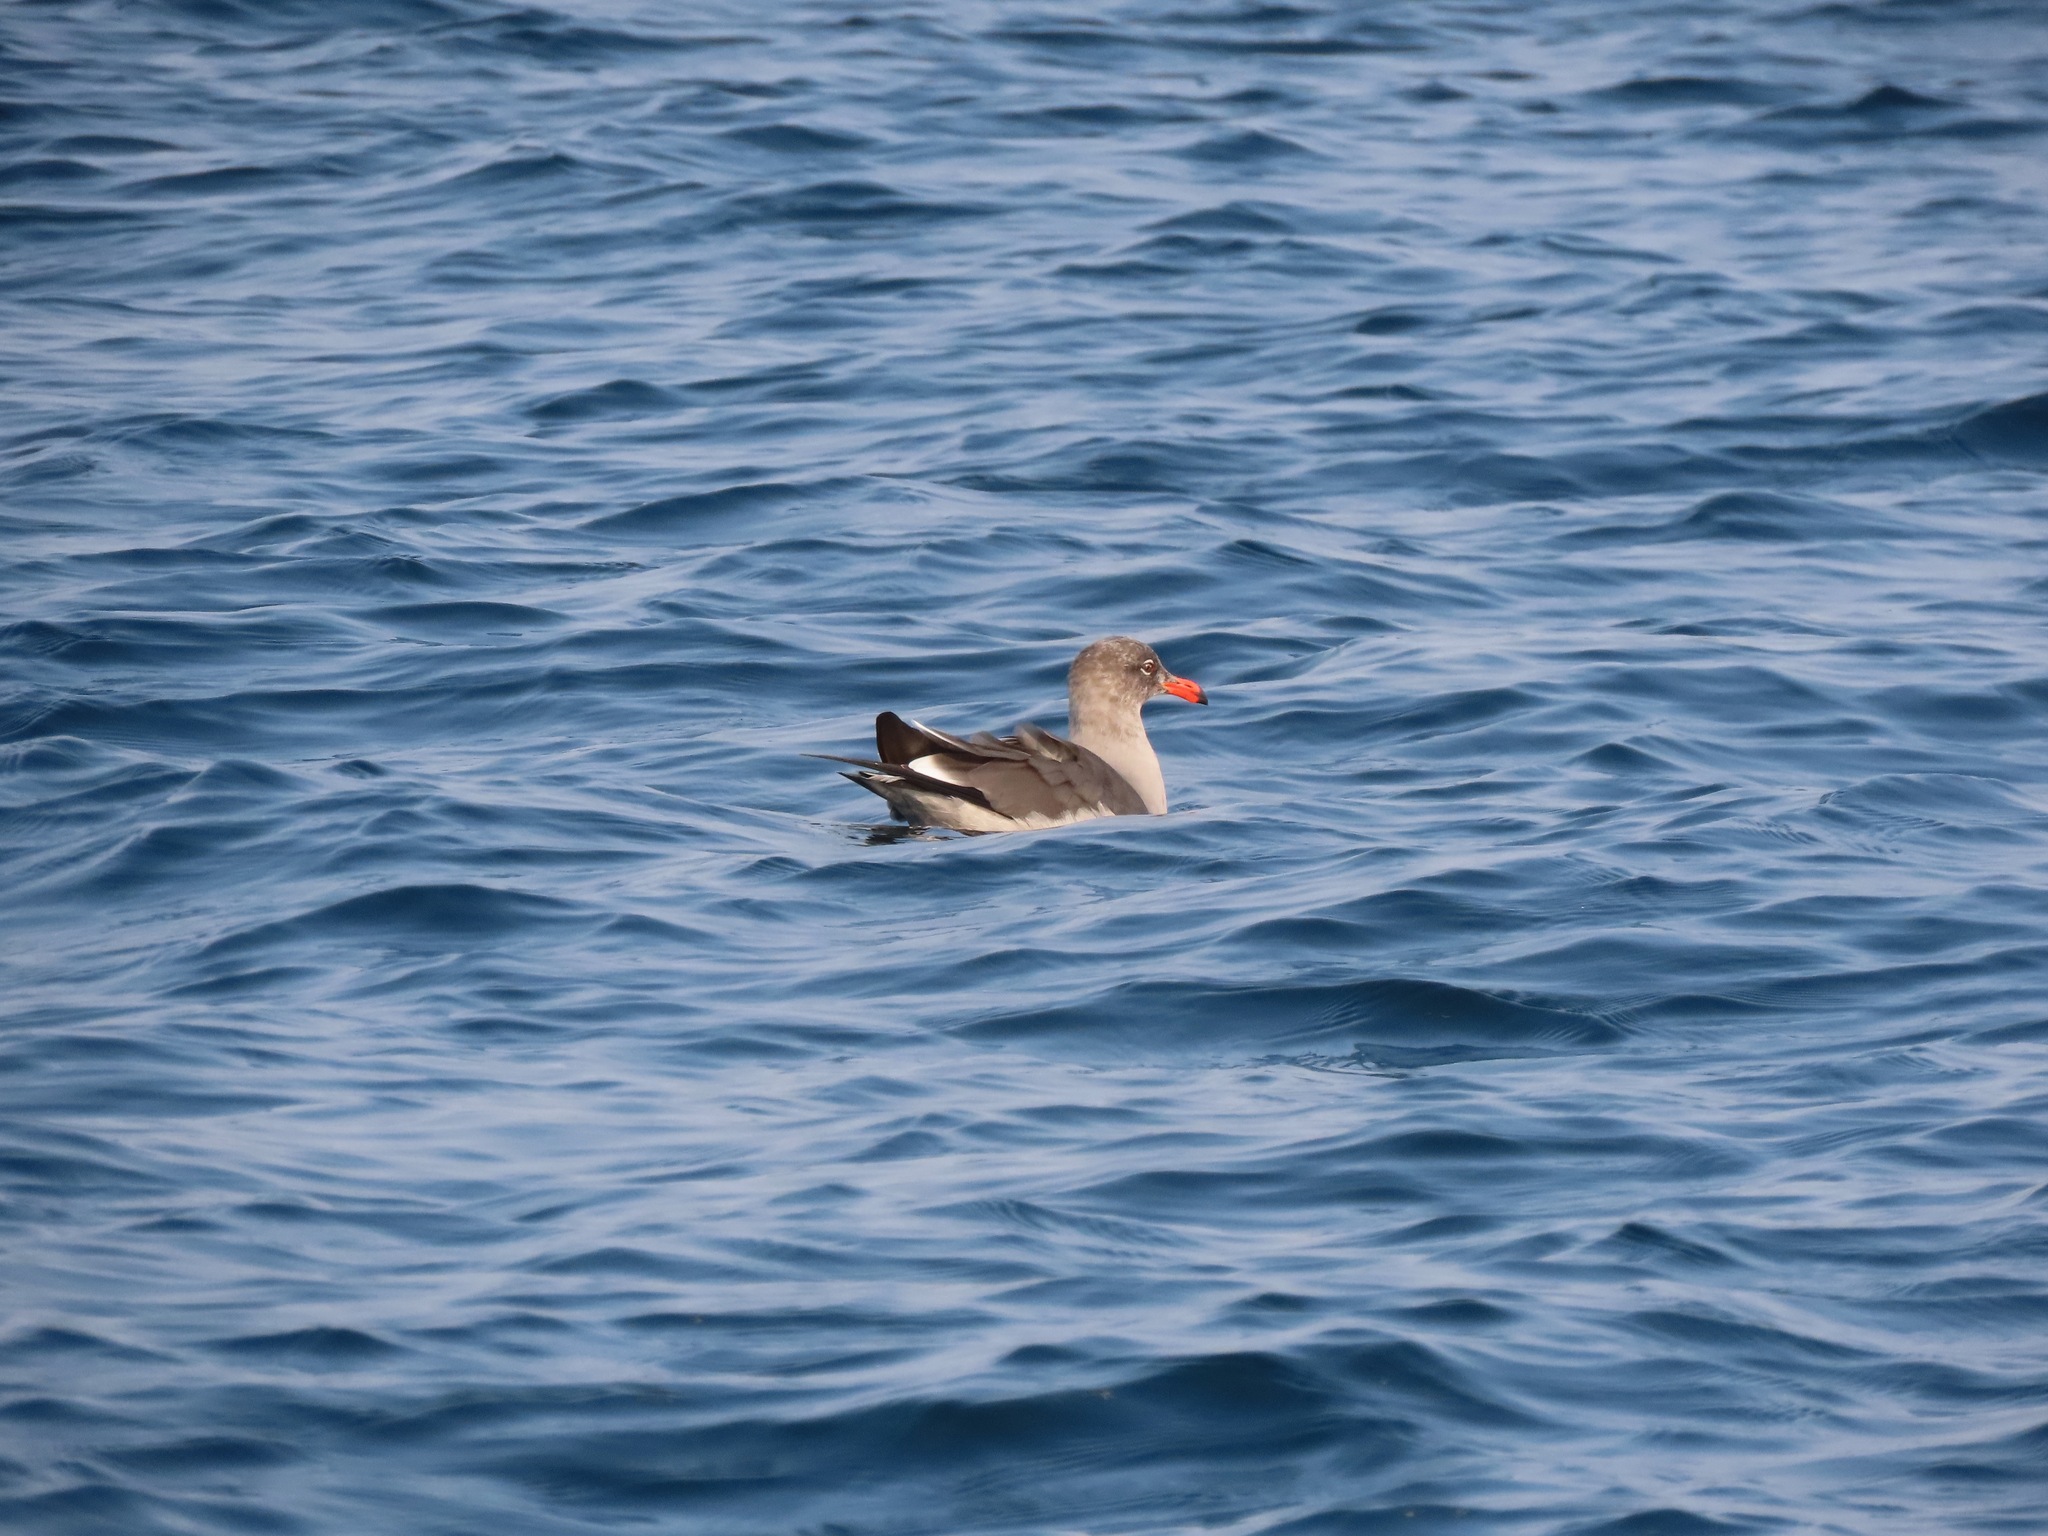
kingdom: Animalia
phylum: Chordata
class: Aves
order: Charadriiformes
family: Laridae
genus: Larus
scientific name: Larus heermanni
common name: Heermann's gull
